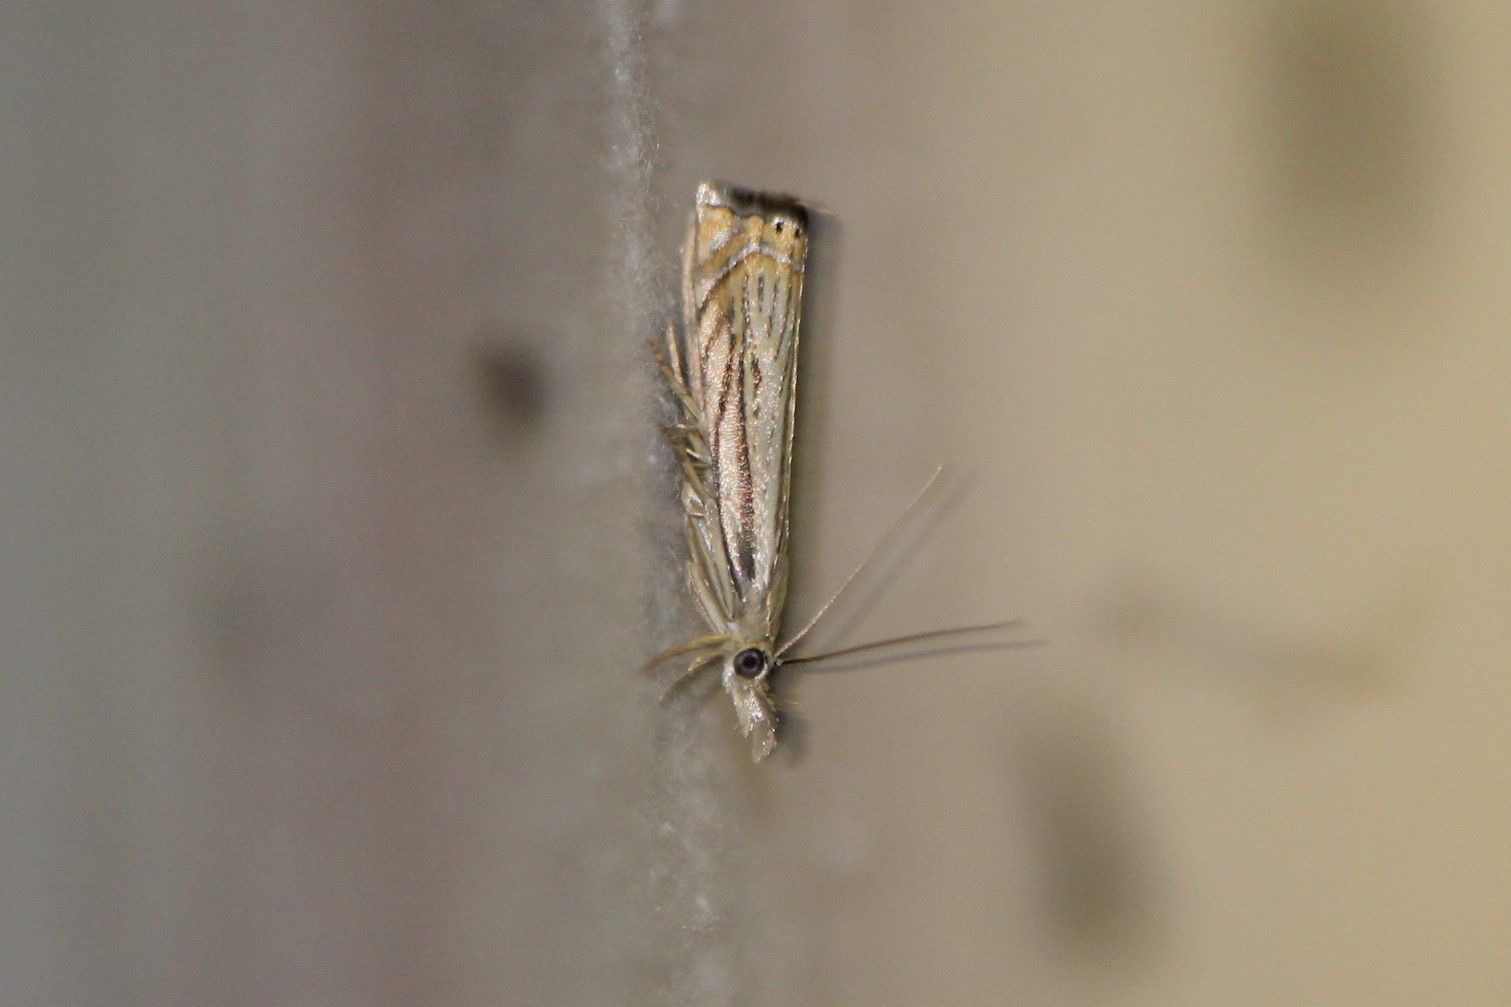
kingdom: Animalia
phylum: Arthropoda
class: Insecta
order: Lepidoptera
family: Crambidae
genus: Chrysoteuchia
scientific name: Chrysoteuchia topiarius
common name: Topiary grass-veneer
